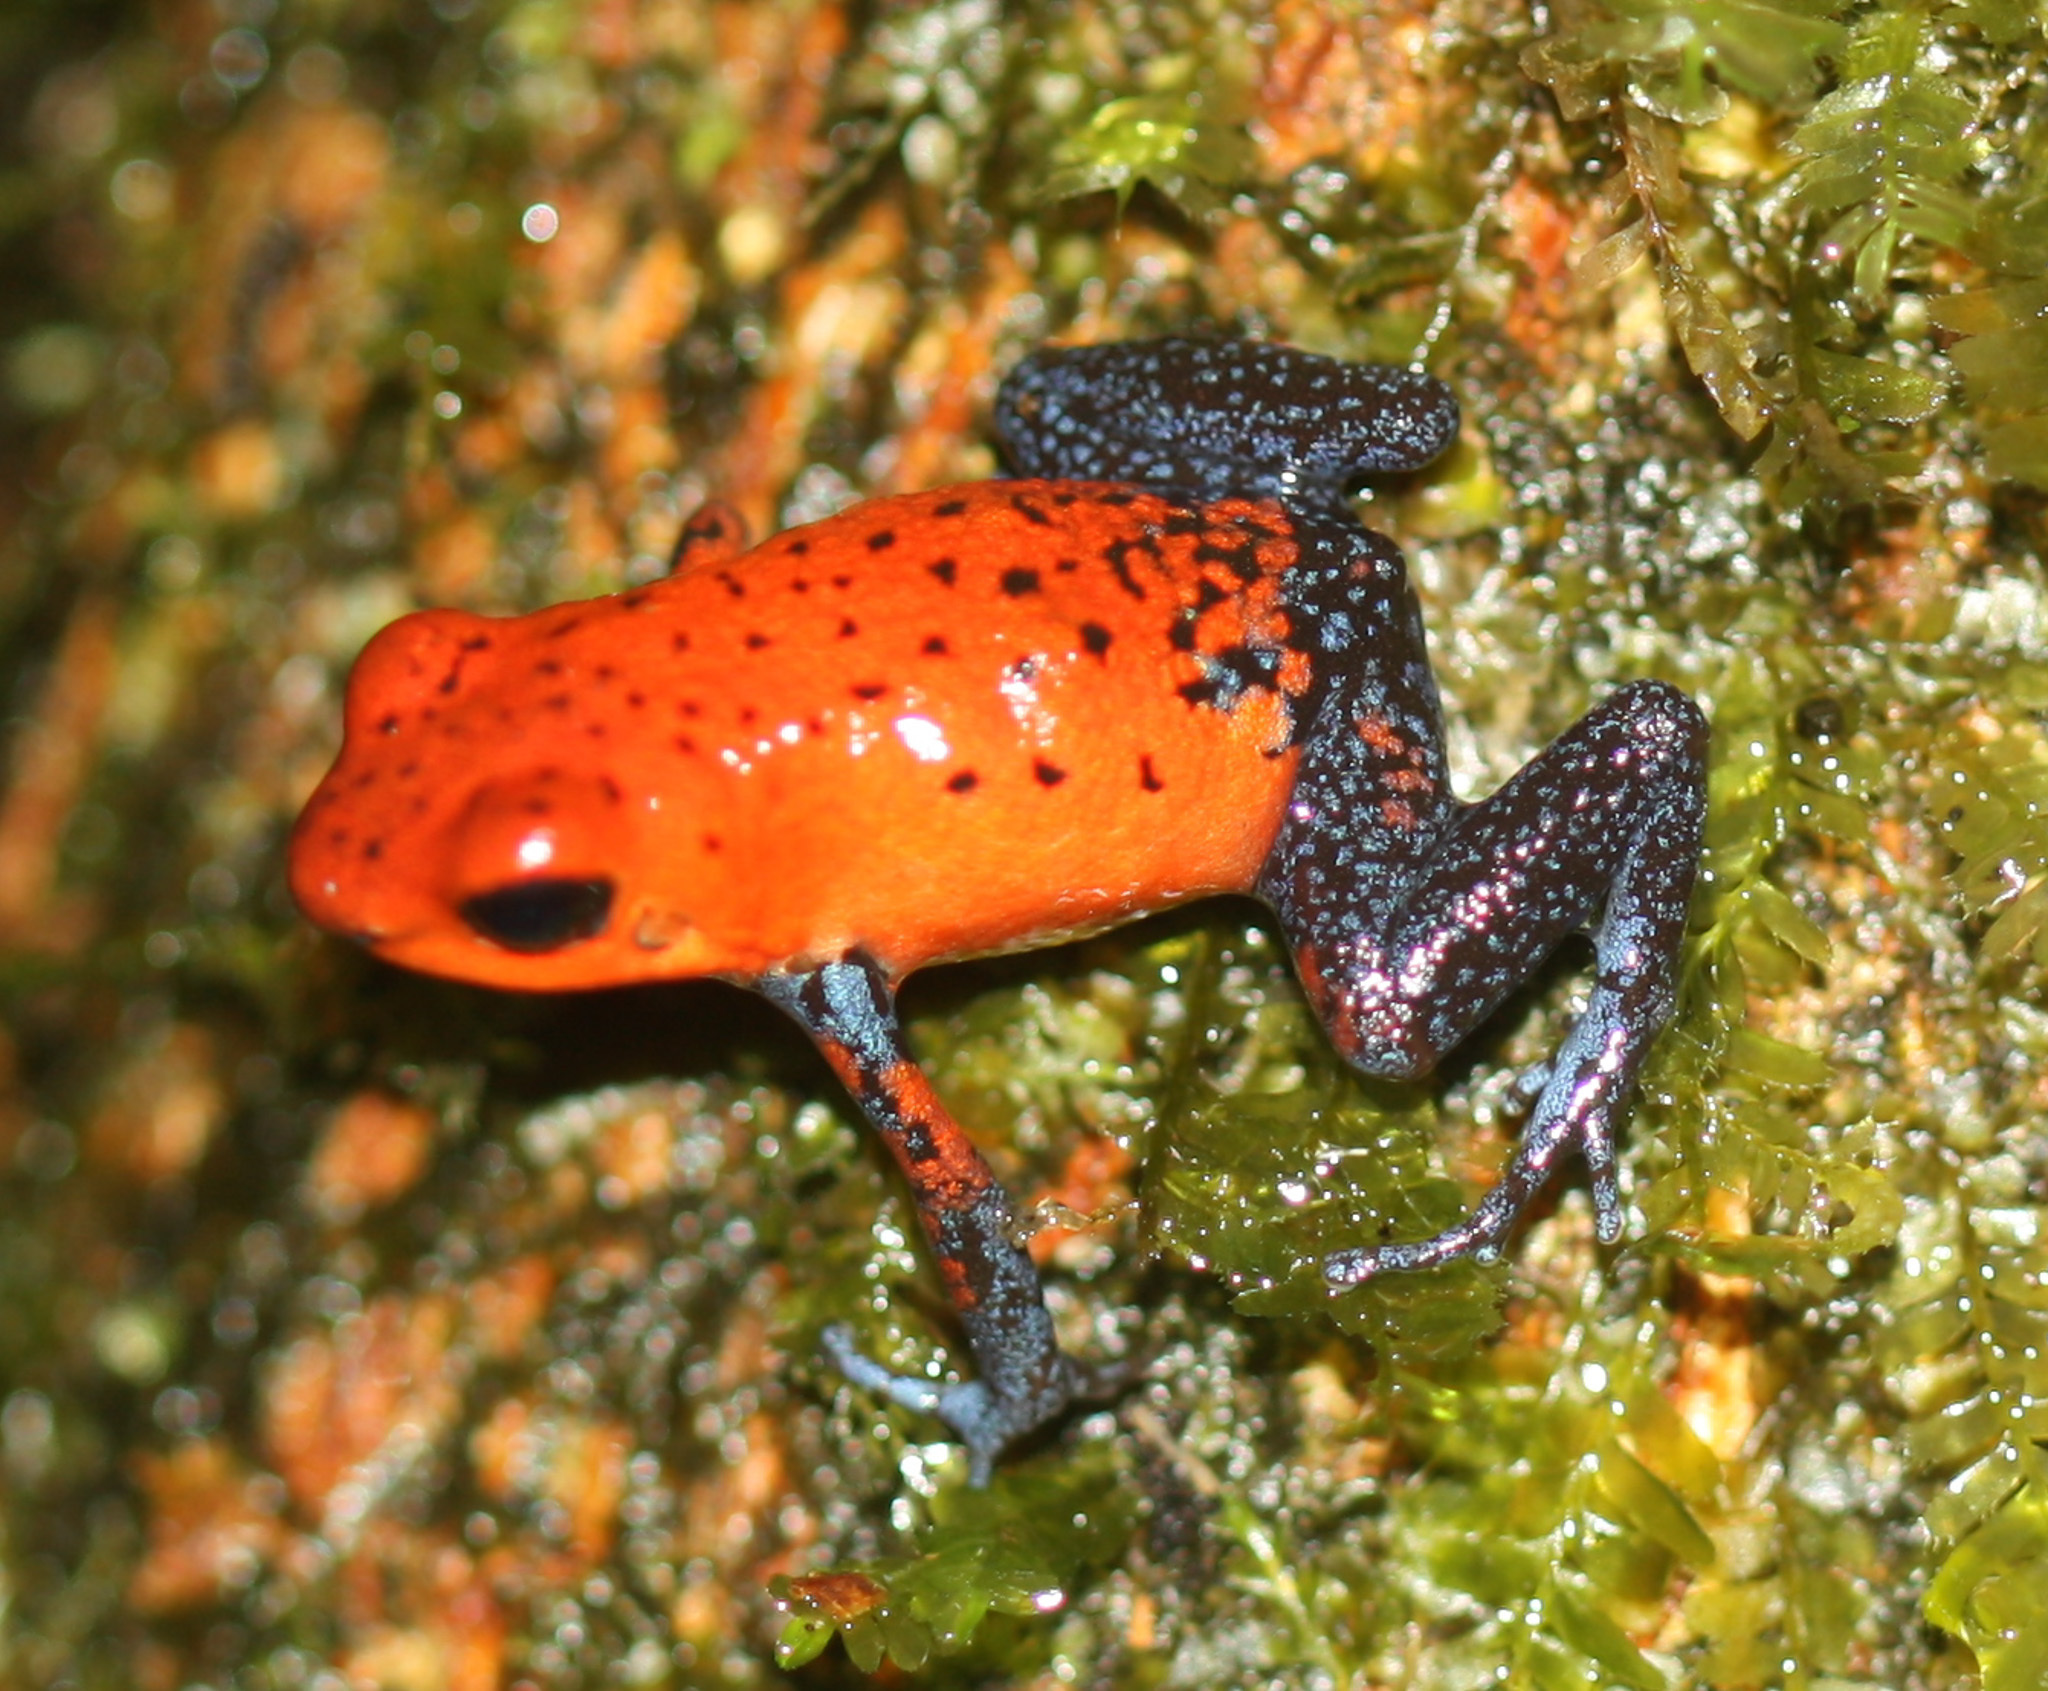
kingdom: Animalia
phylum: Chordata
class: Amphibia
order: Anura
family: Dendrobatidae
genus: Oophaga
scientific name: Oophaga pumilio
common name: Flaming poison frog
